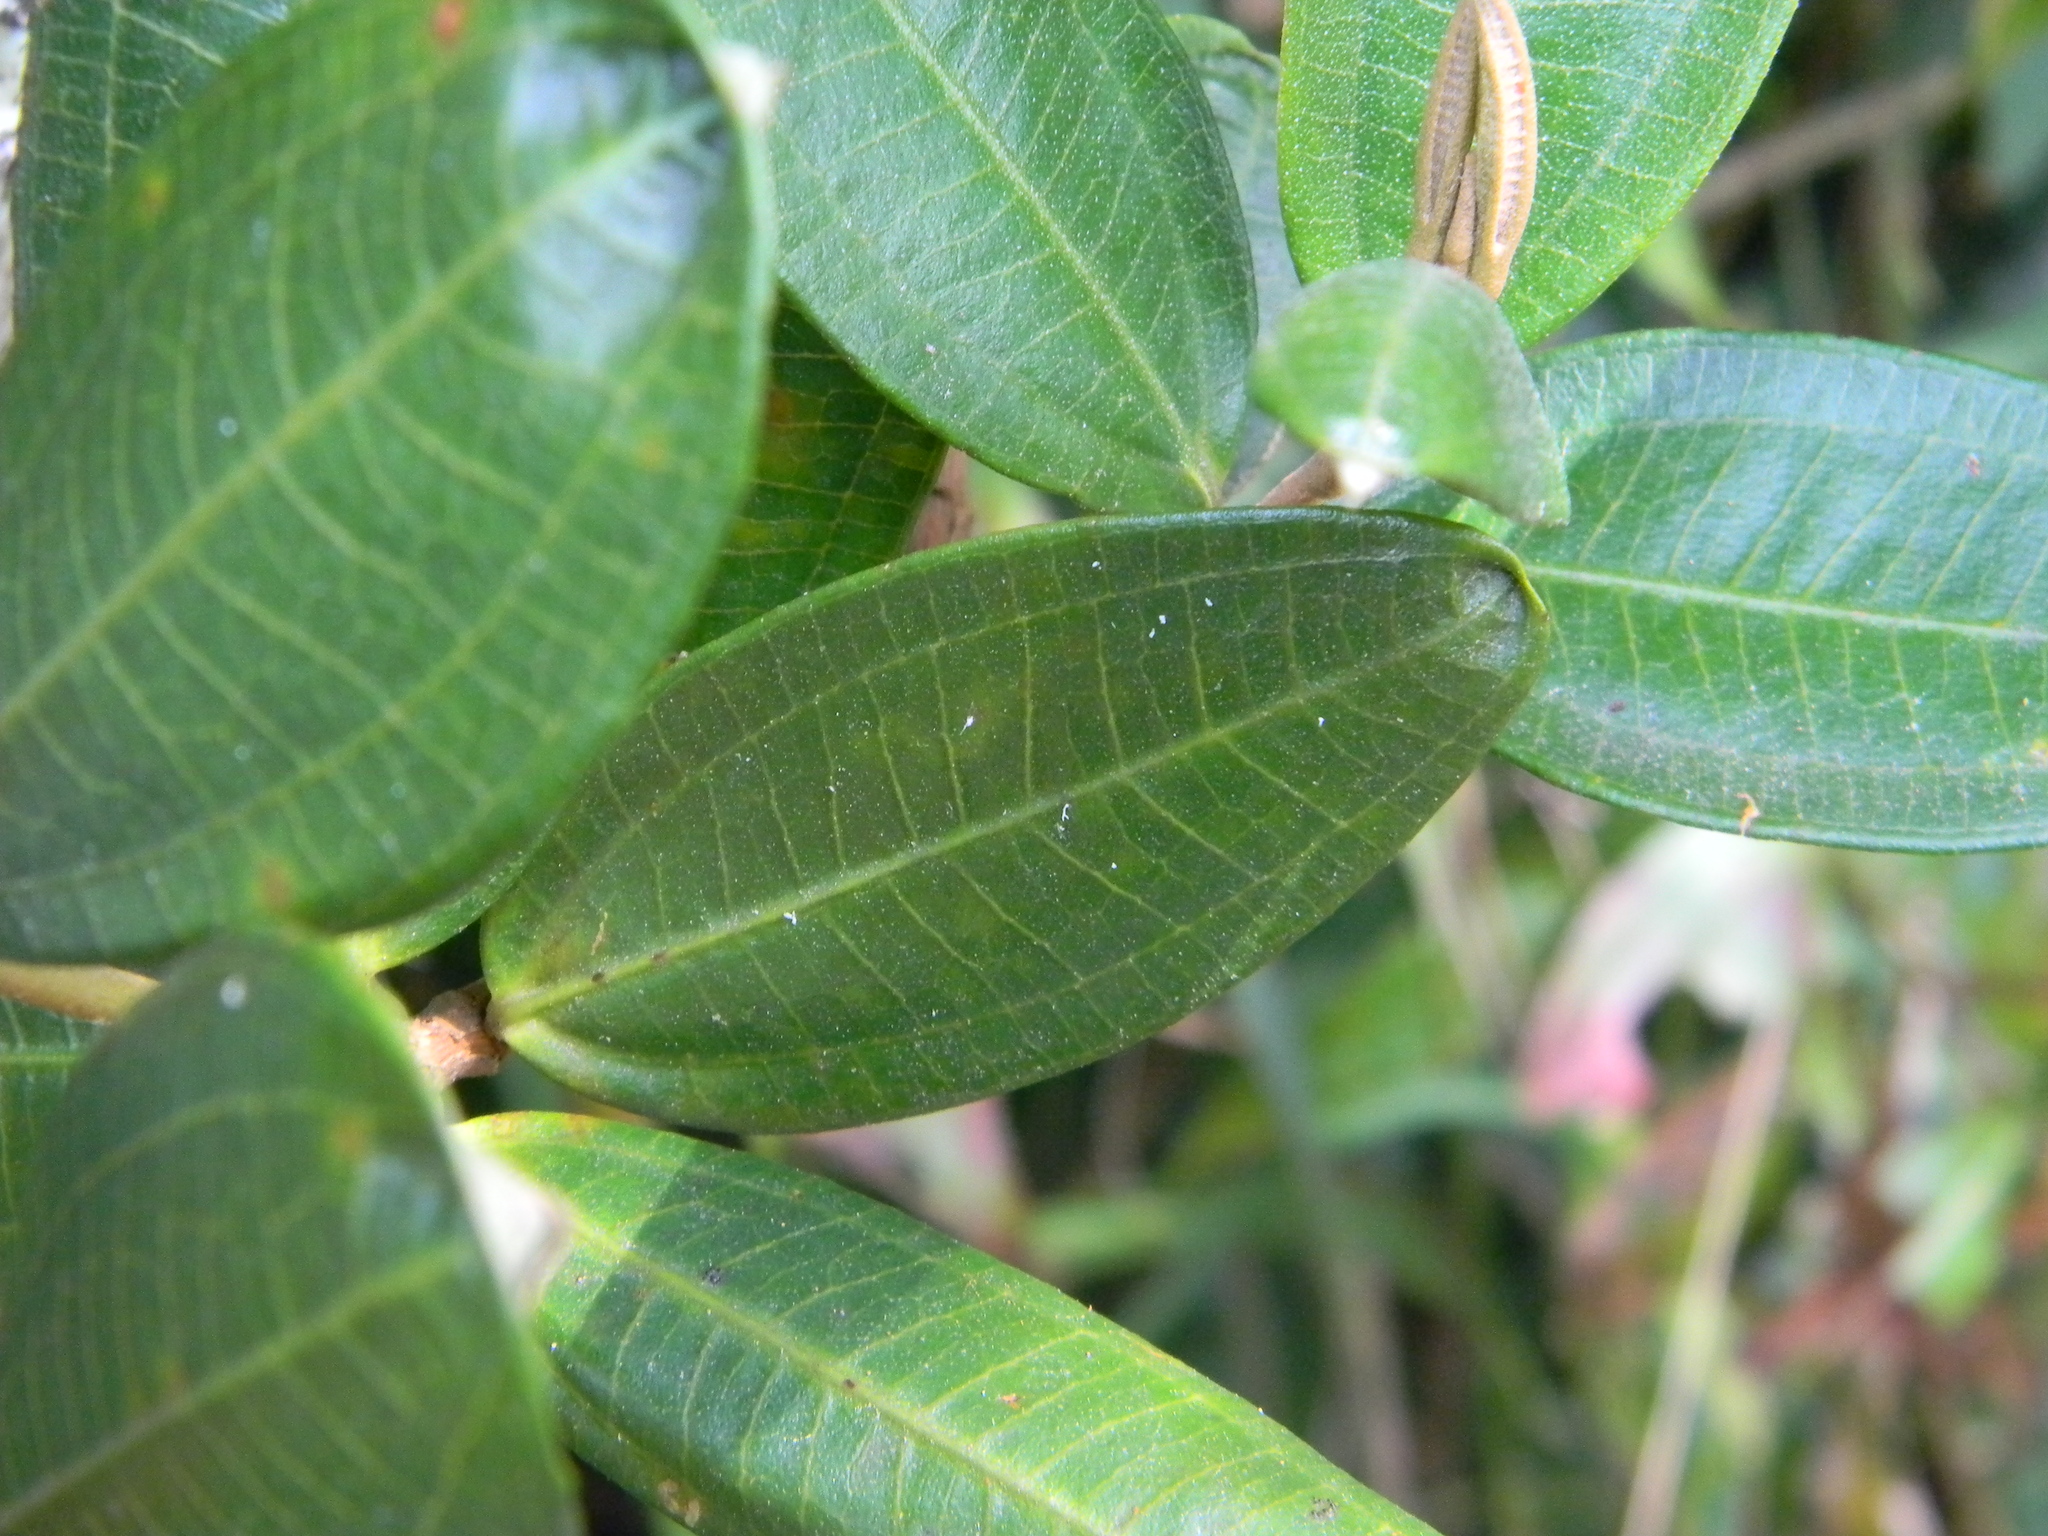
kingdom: Plantae
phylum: Tracheophyta
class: Magnoliopsida
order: Myrtales
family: Melastomataceae
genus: Miconia
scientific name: Miconia squamulosa
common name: Squamulose maya
